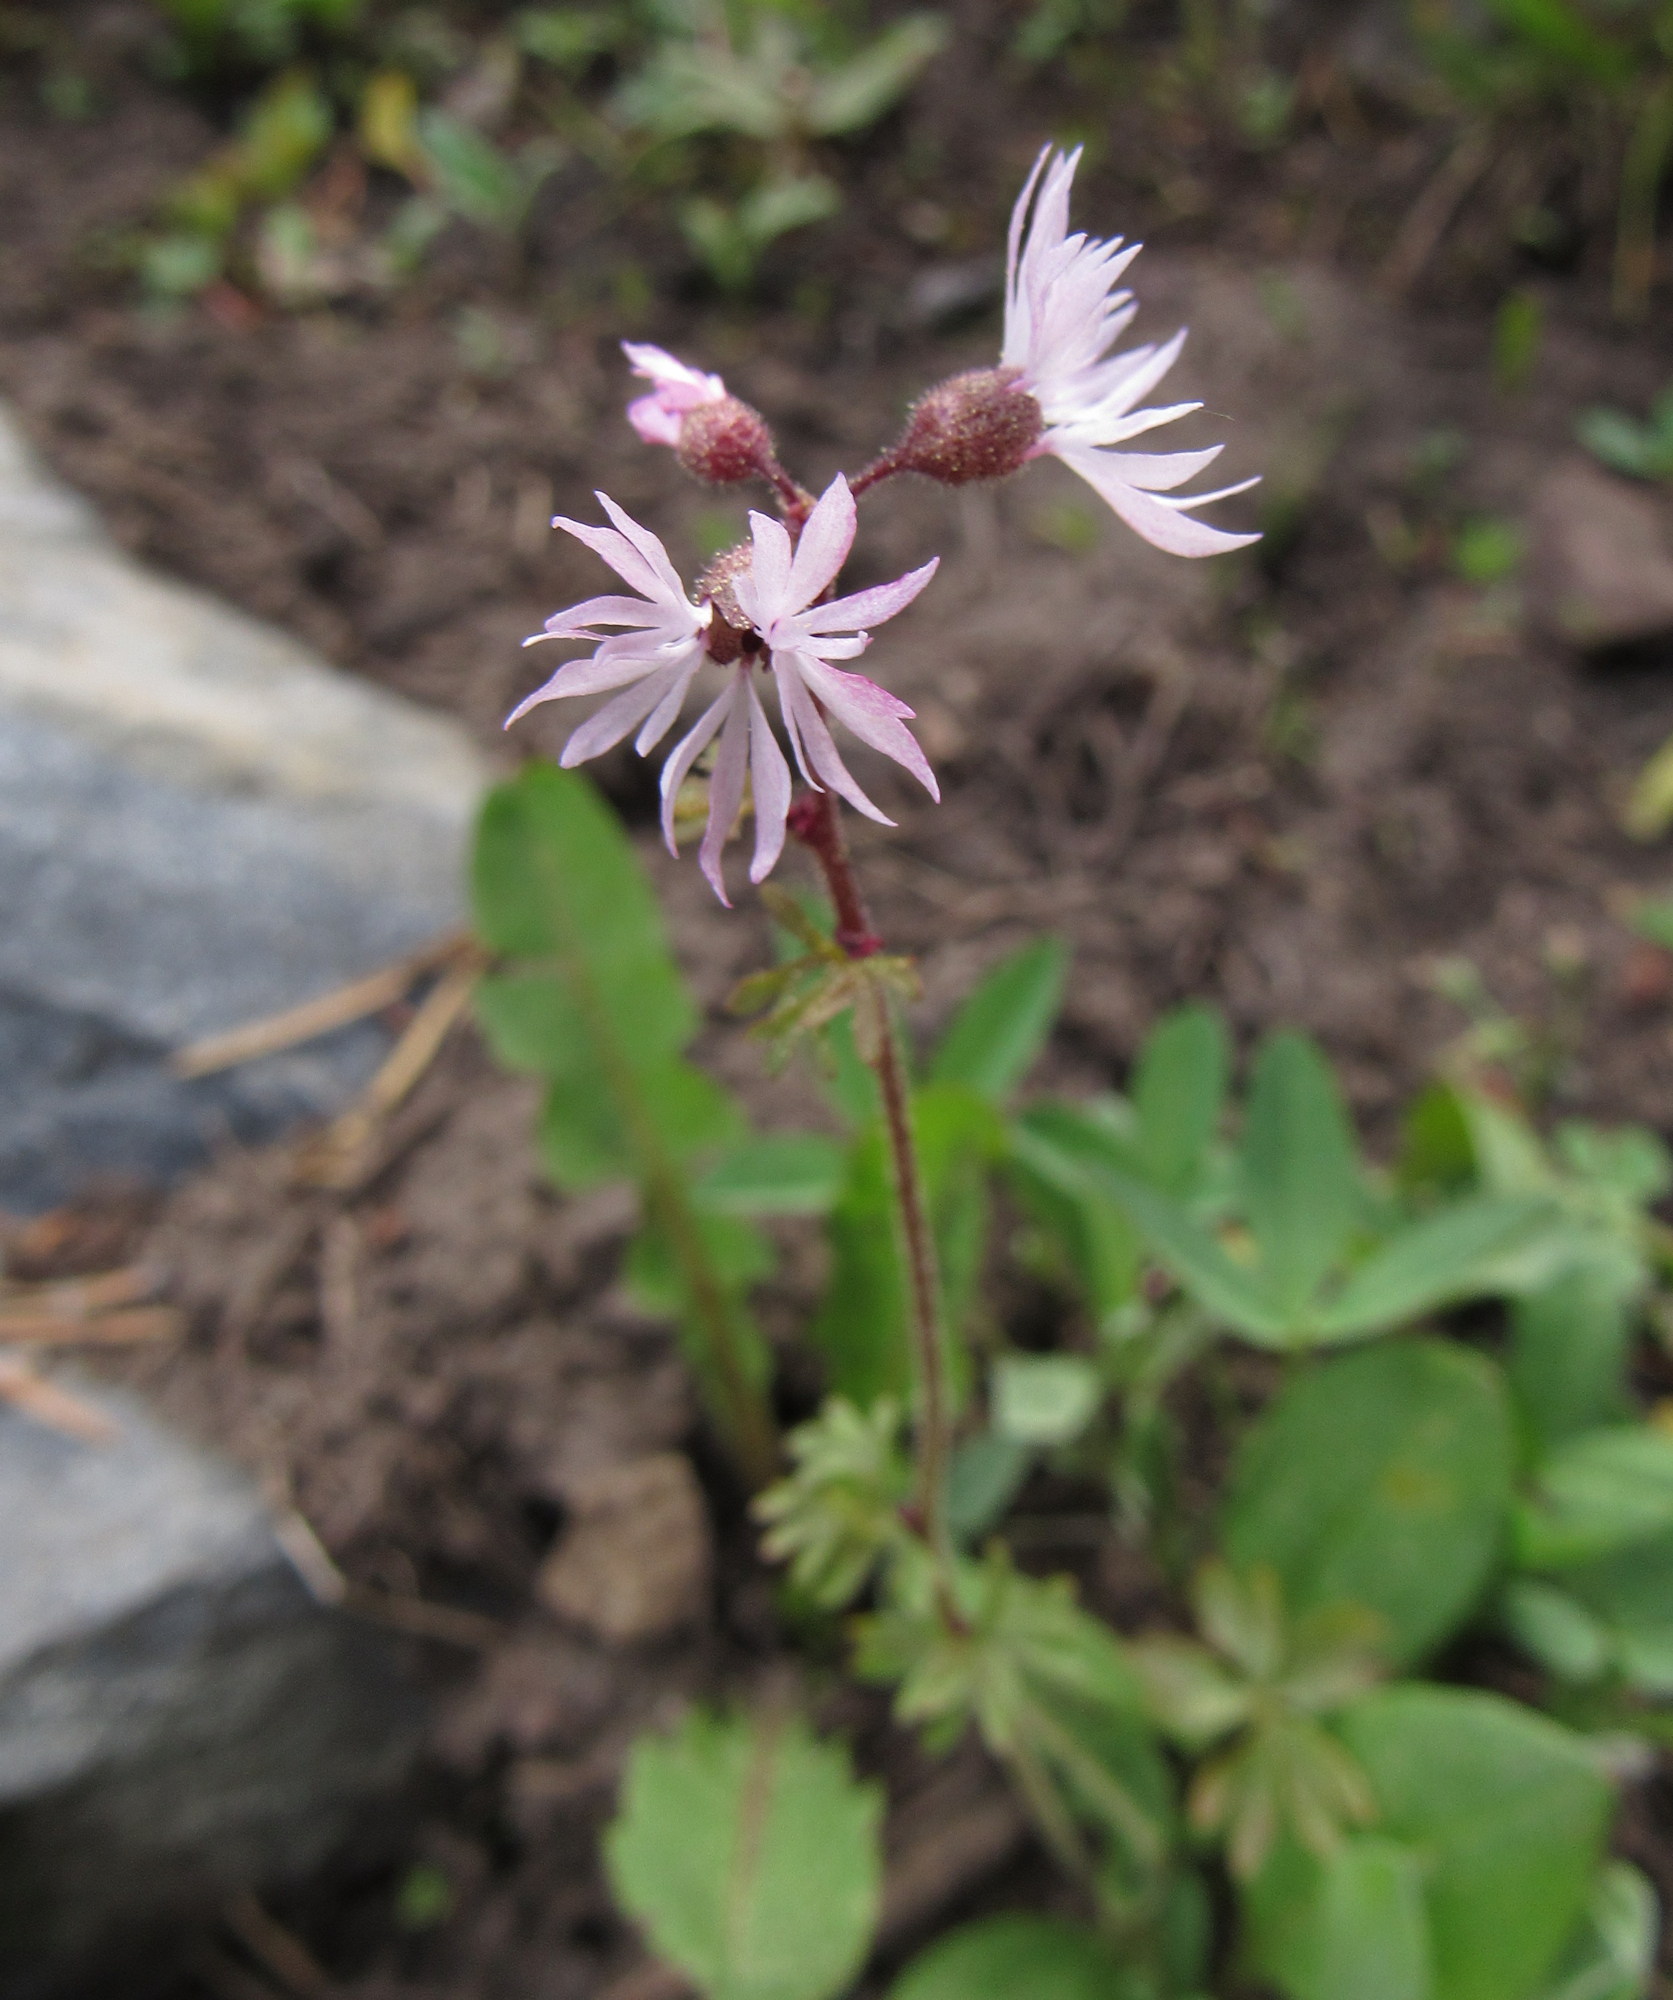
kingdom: Plantae
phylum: Tracheophyta
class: Magnoliopsida
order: Saxifragales
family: Saxifragaceae
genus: Lithophragma
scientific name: Lithophragma glabrum
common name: Bulbous prairie-star
